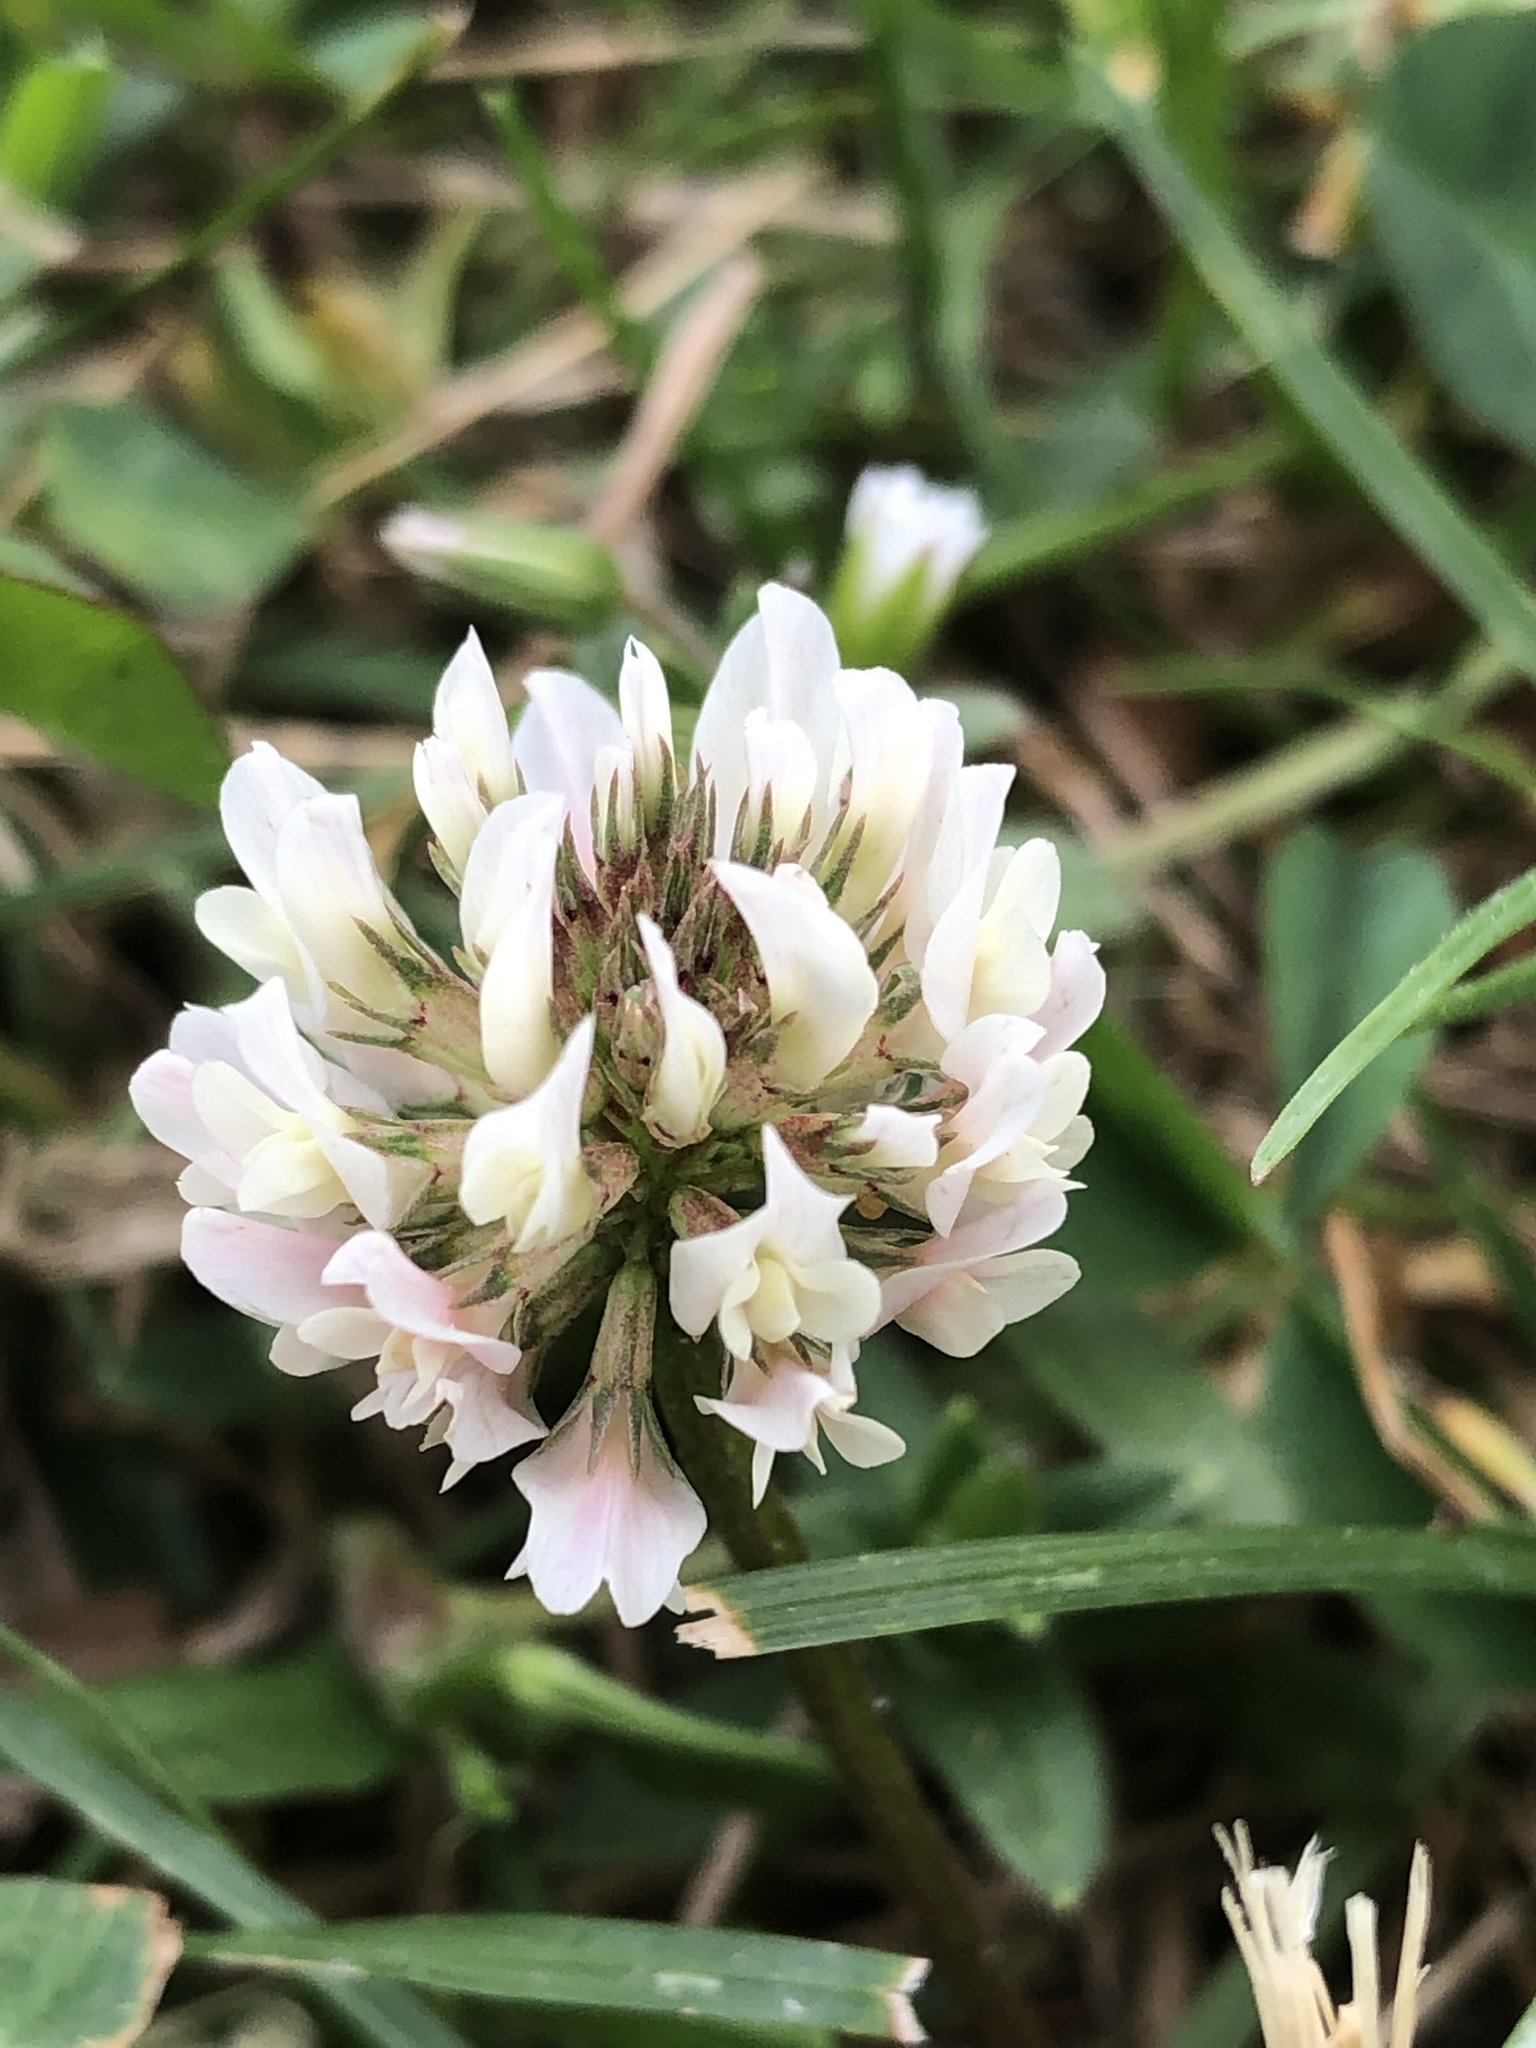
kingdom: Plantae
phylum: Tracheophyta
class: Magnoliopsida
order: Fabales
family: Fabaceae
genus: Trifolium
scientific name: Trifolium repens
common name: White clover
